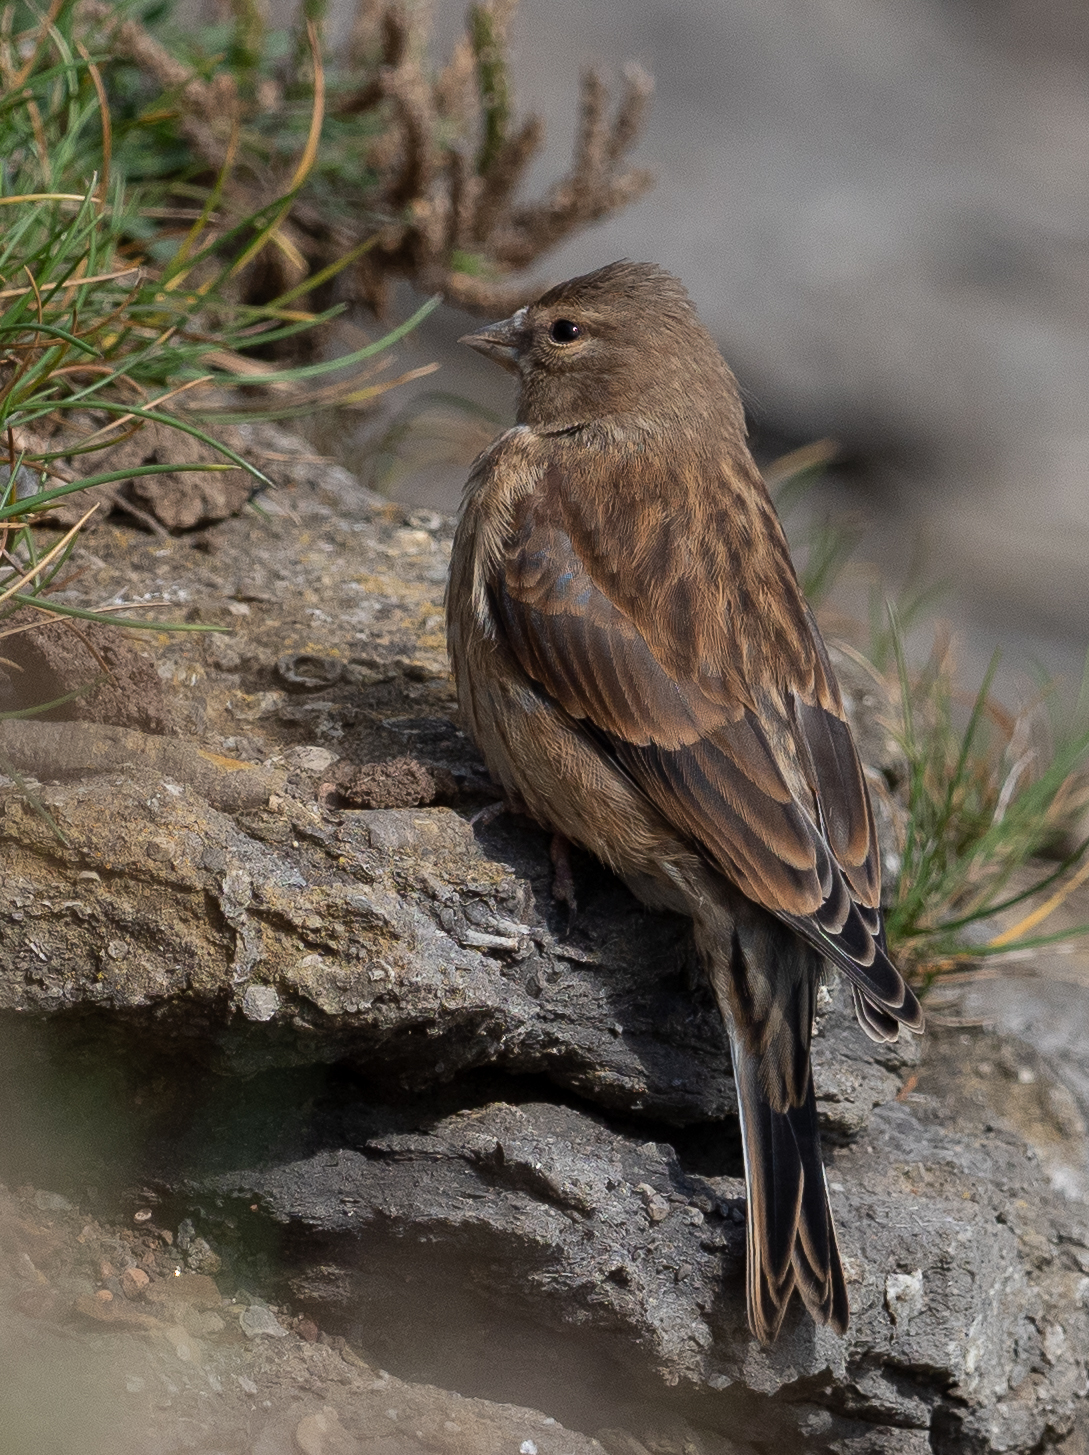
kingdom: Animalia
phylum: Chordata
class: Aves
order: Passeriformes
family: Fringillidae
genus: Linaria
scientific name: Linaria cannabina
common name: Common linnet
